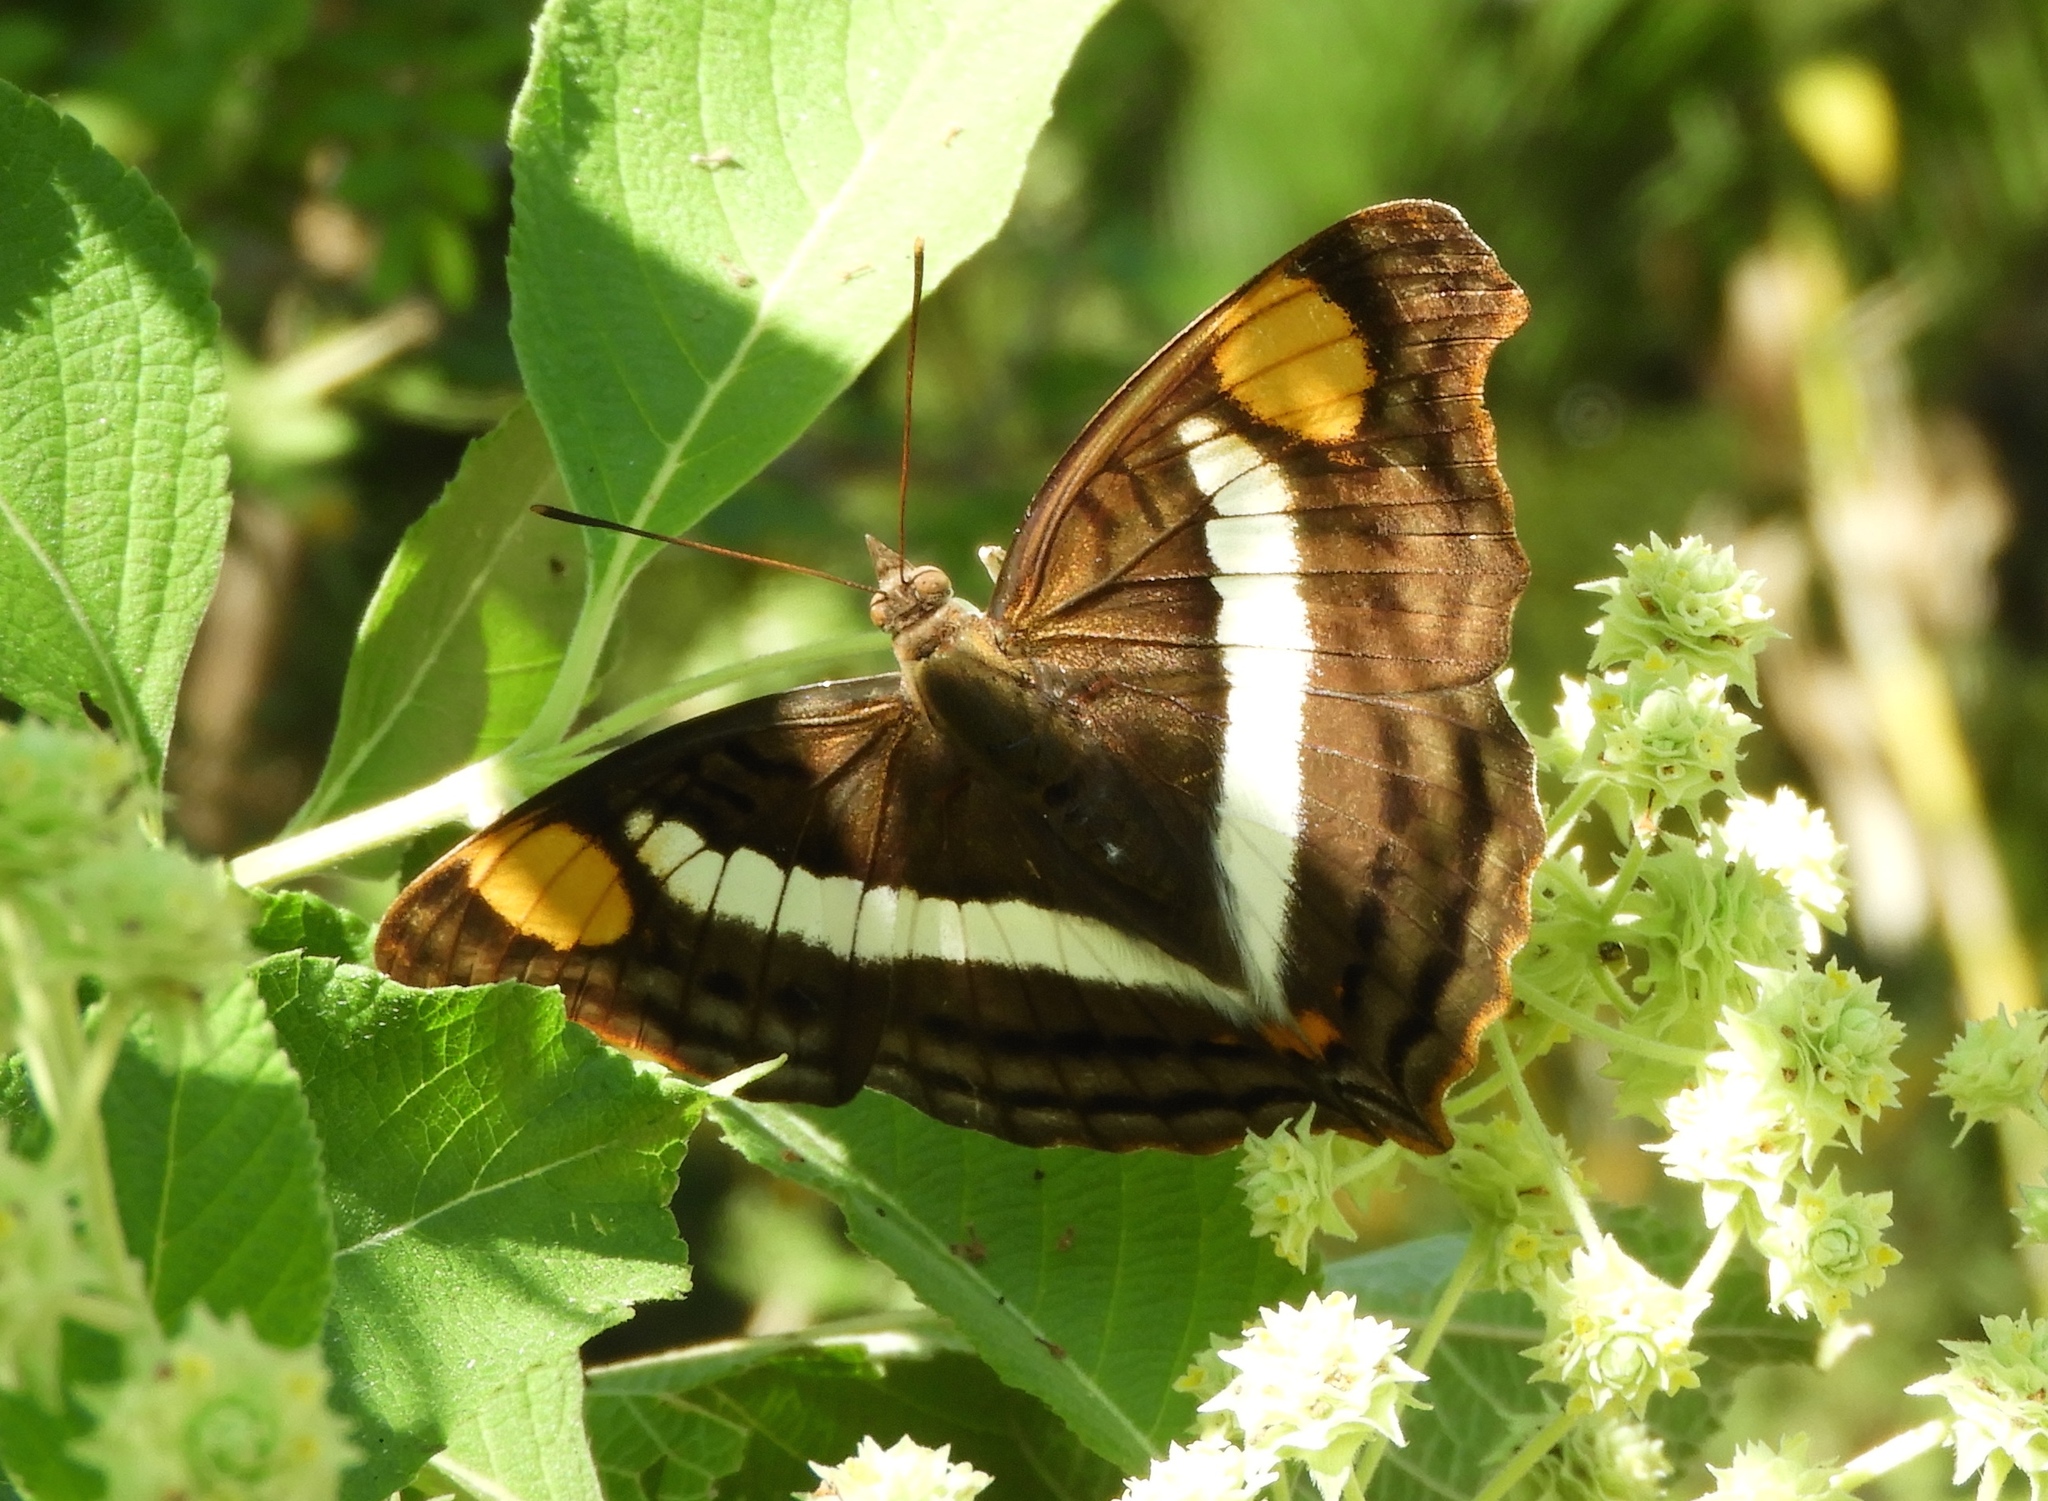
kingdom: Animalia
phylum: Arthropoda
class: Insecta
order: Lepidoptera
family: Nymphalidae
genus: Doxocopa
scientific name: Doxocopa laure
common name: Silver emperor
